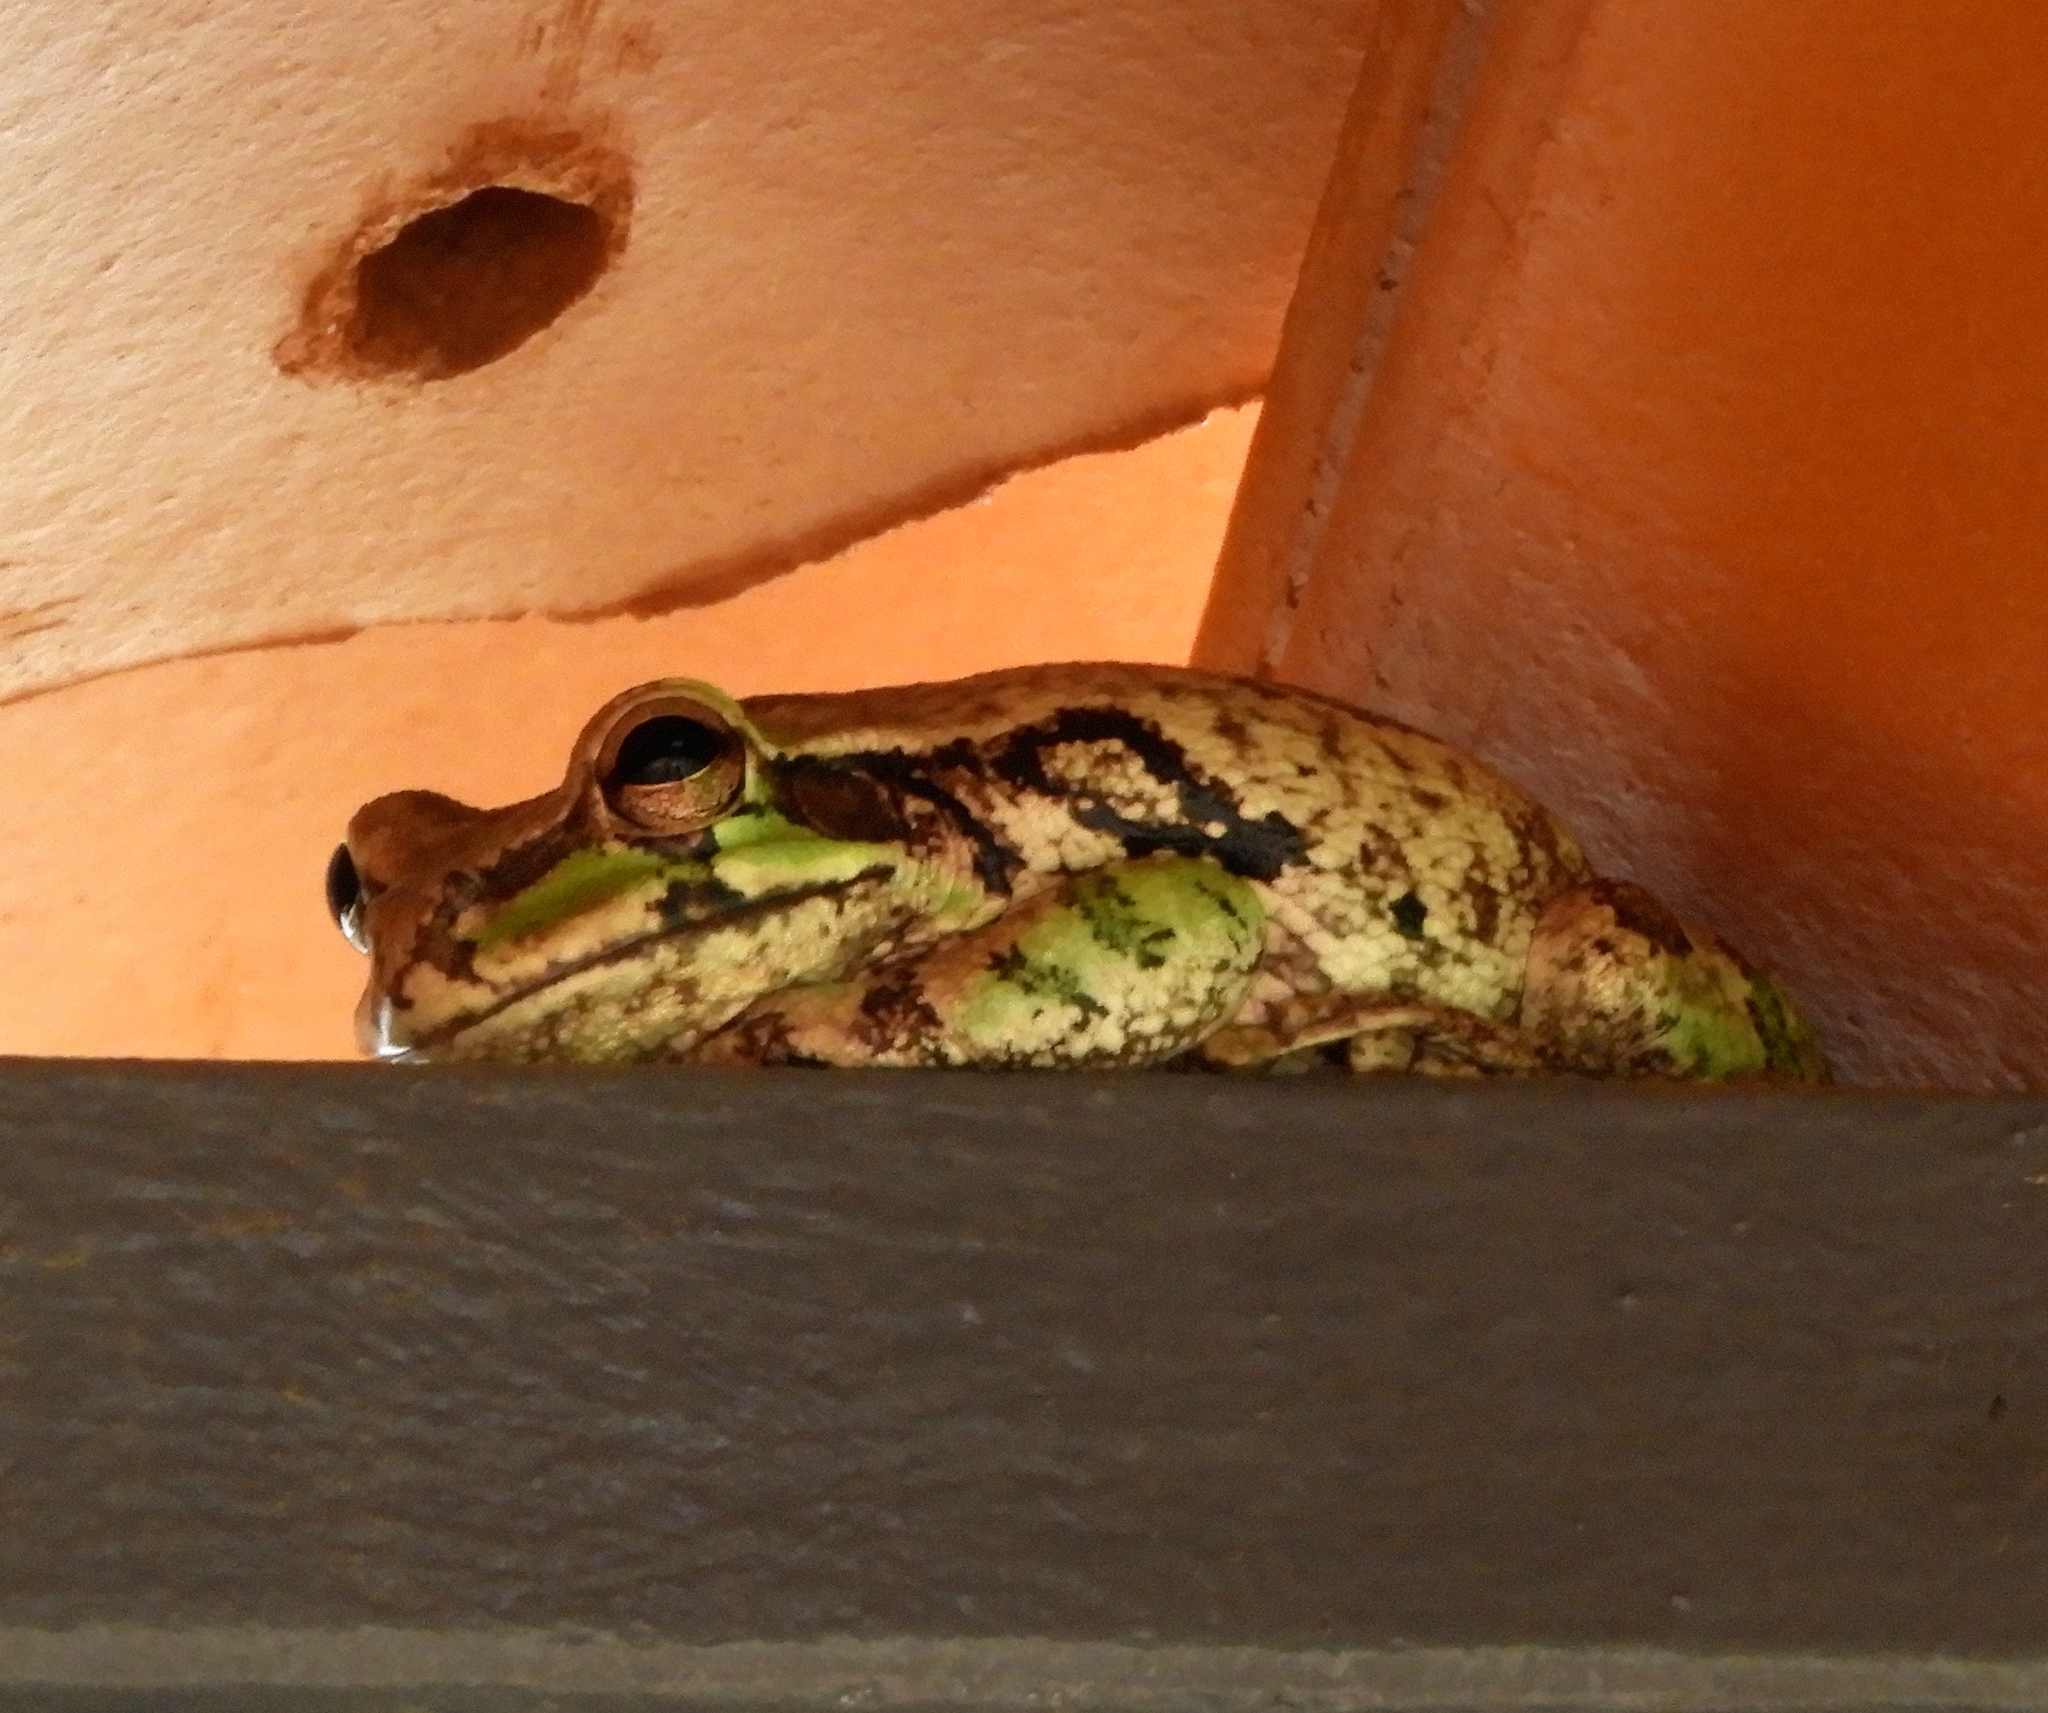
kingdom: Animalia
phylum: Chordata
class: Amphibia
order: Anura
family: Hylidae
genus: Smilisca
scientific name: Smilisca baudinii
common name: Mexican smilisca
